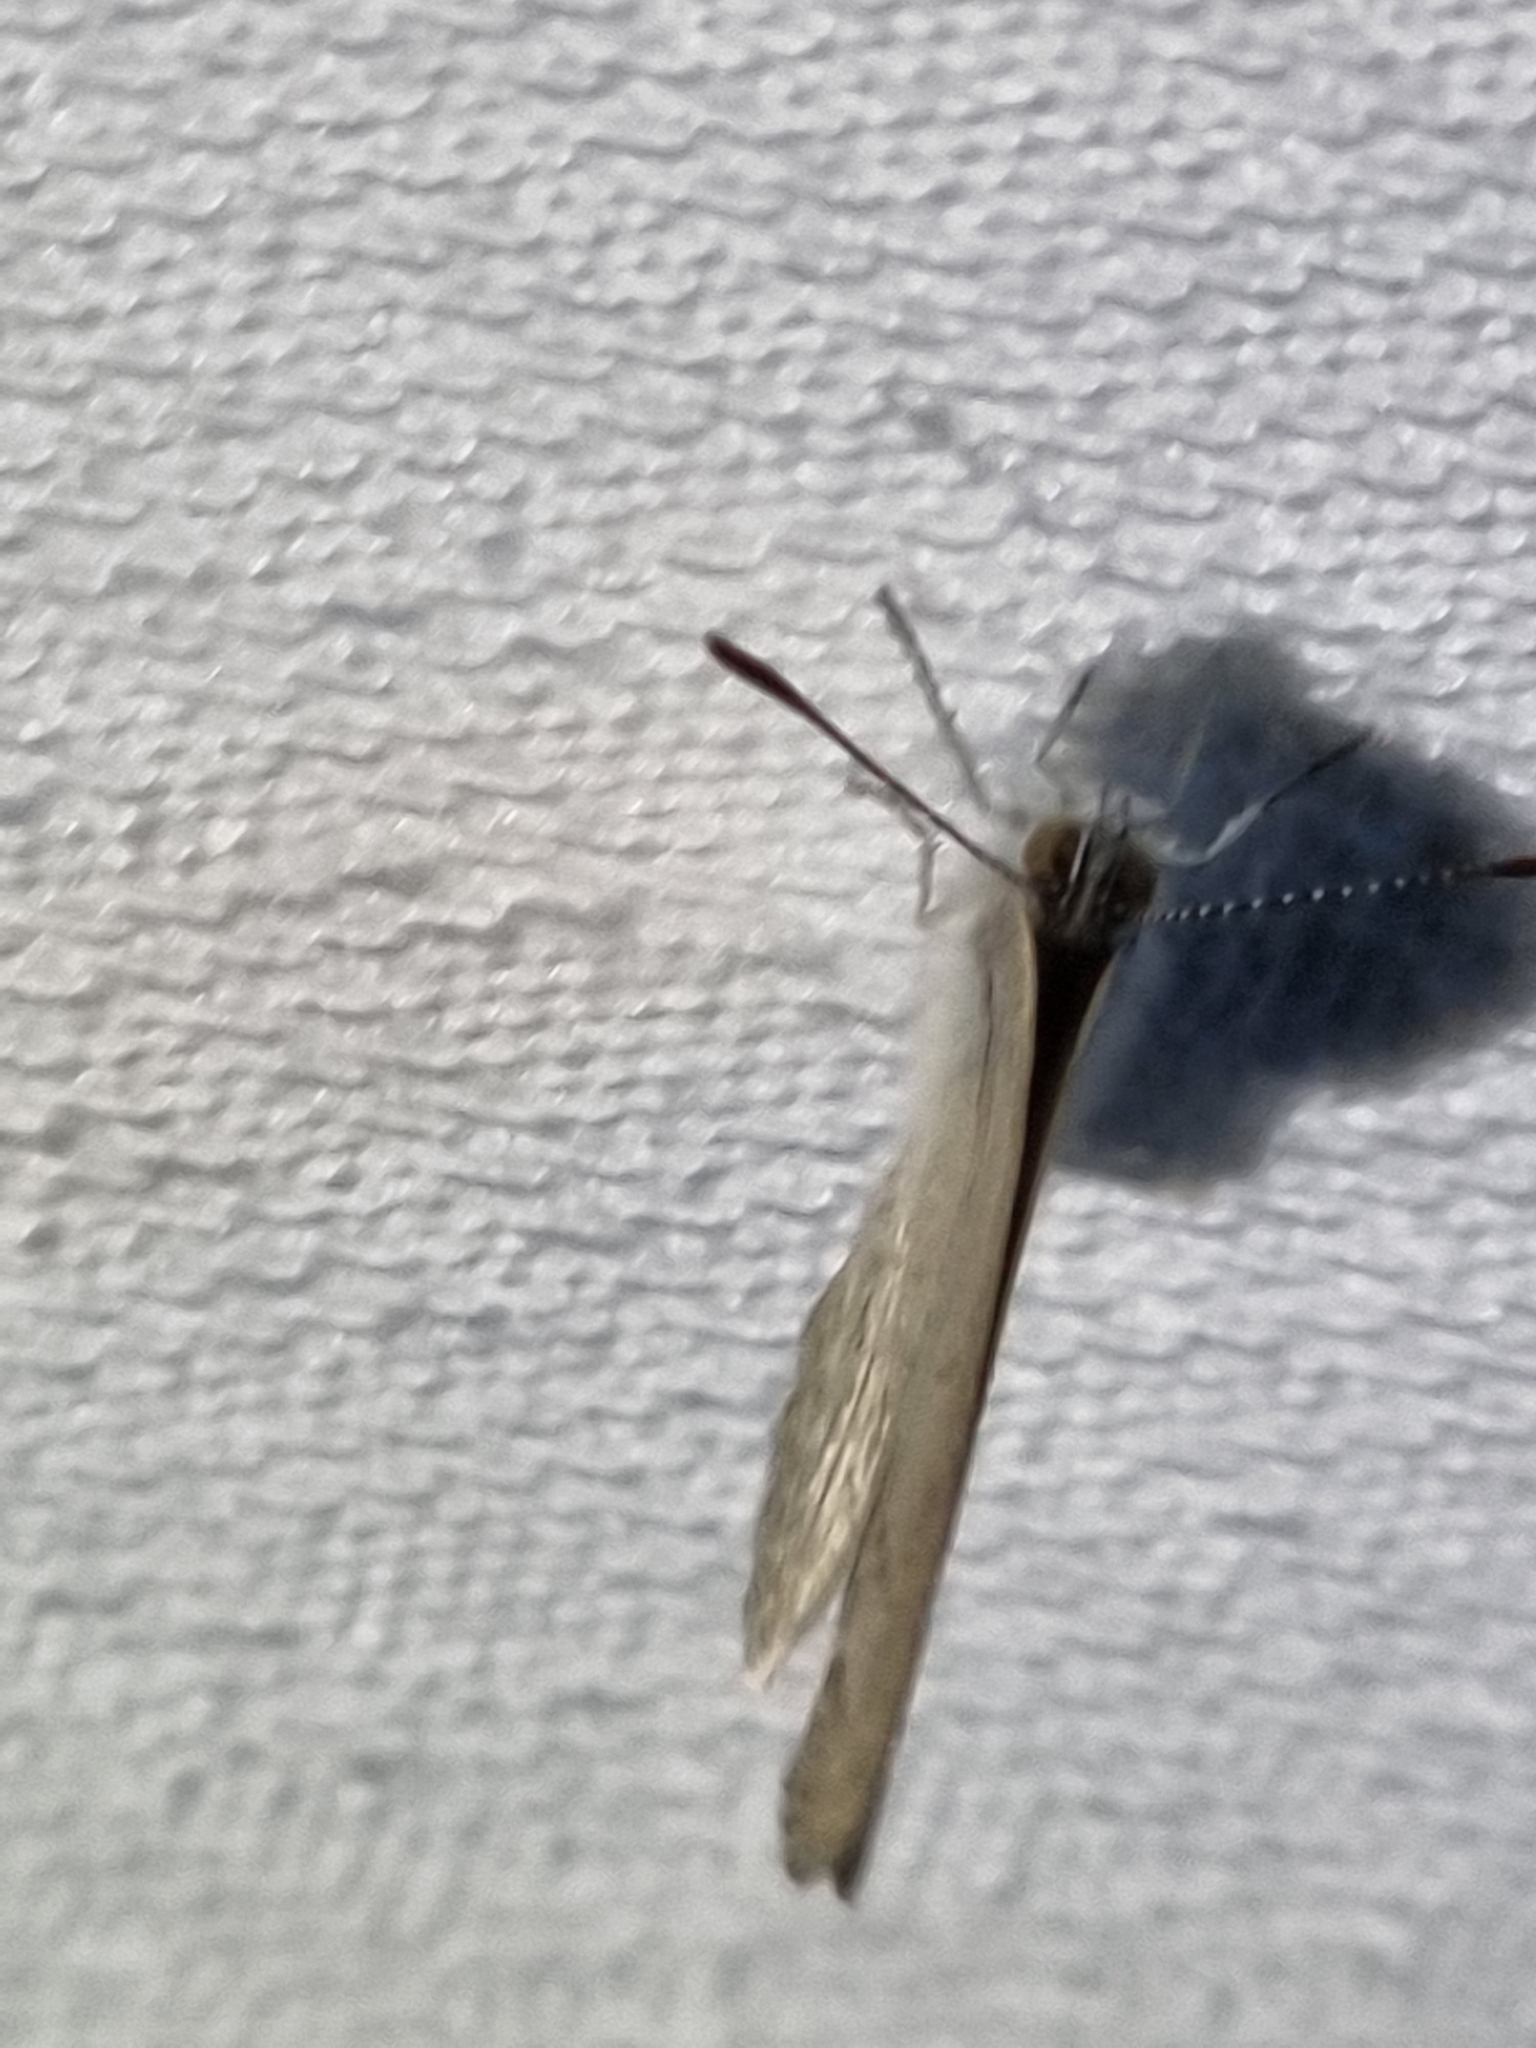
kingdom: Animalia
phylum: Arthropoda
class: Insecta
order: Lepidoptera
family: Lycaenidae
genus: Zizina
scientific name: Zizina labradus
